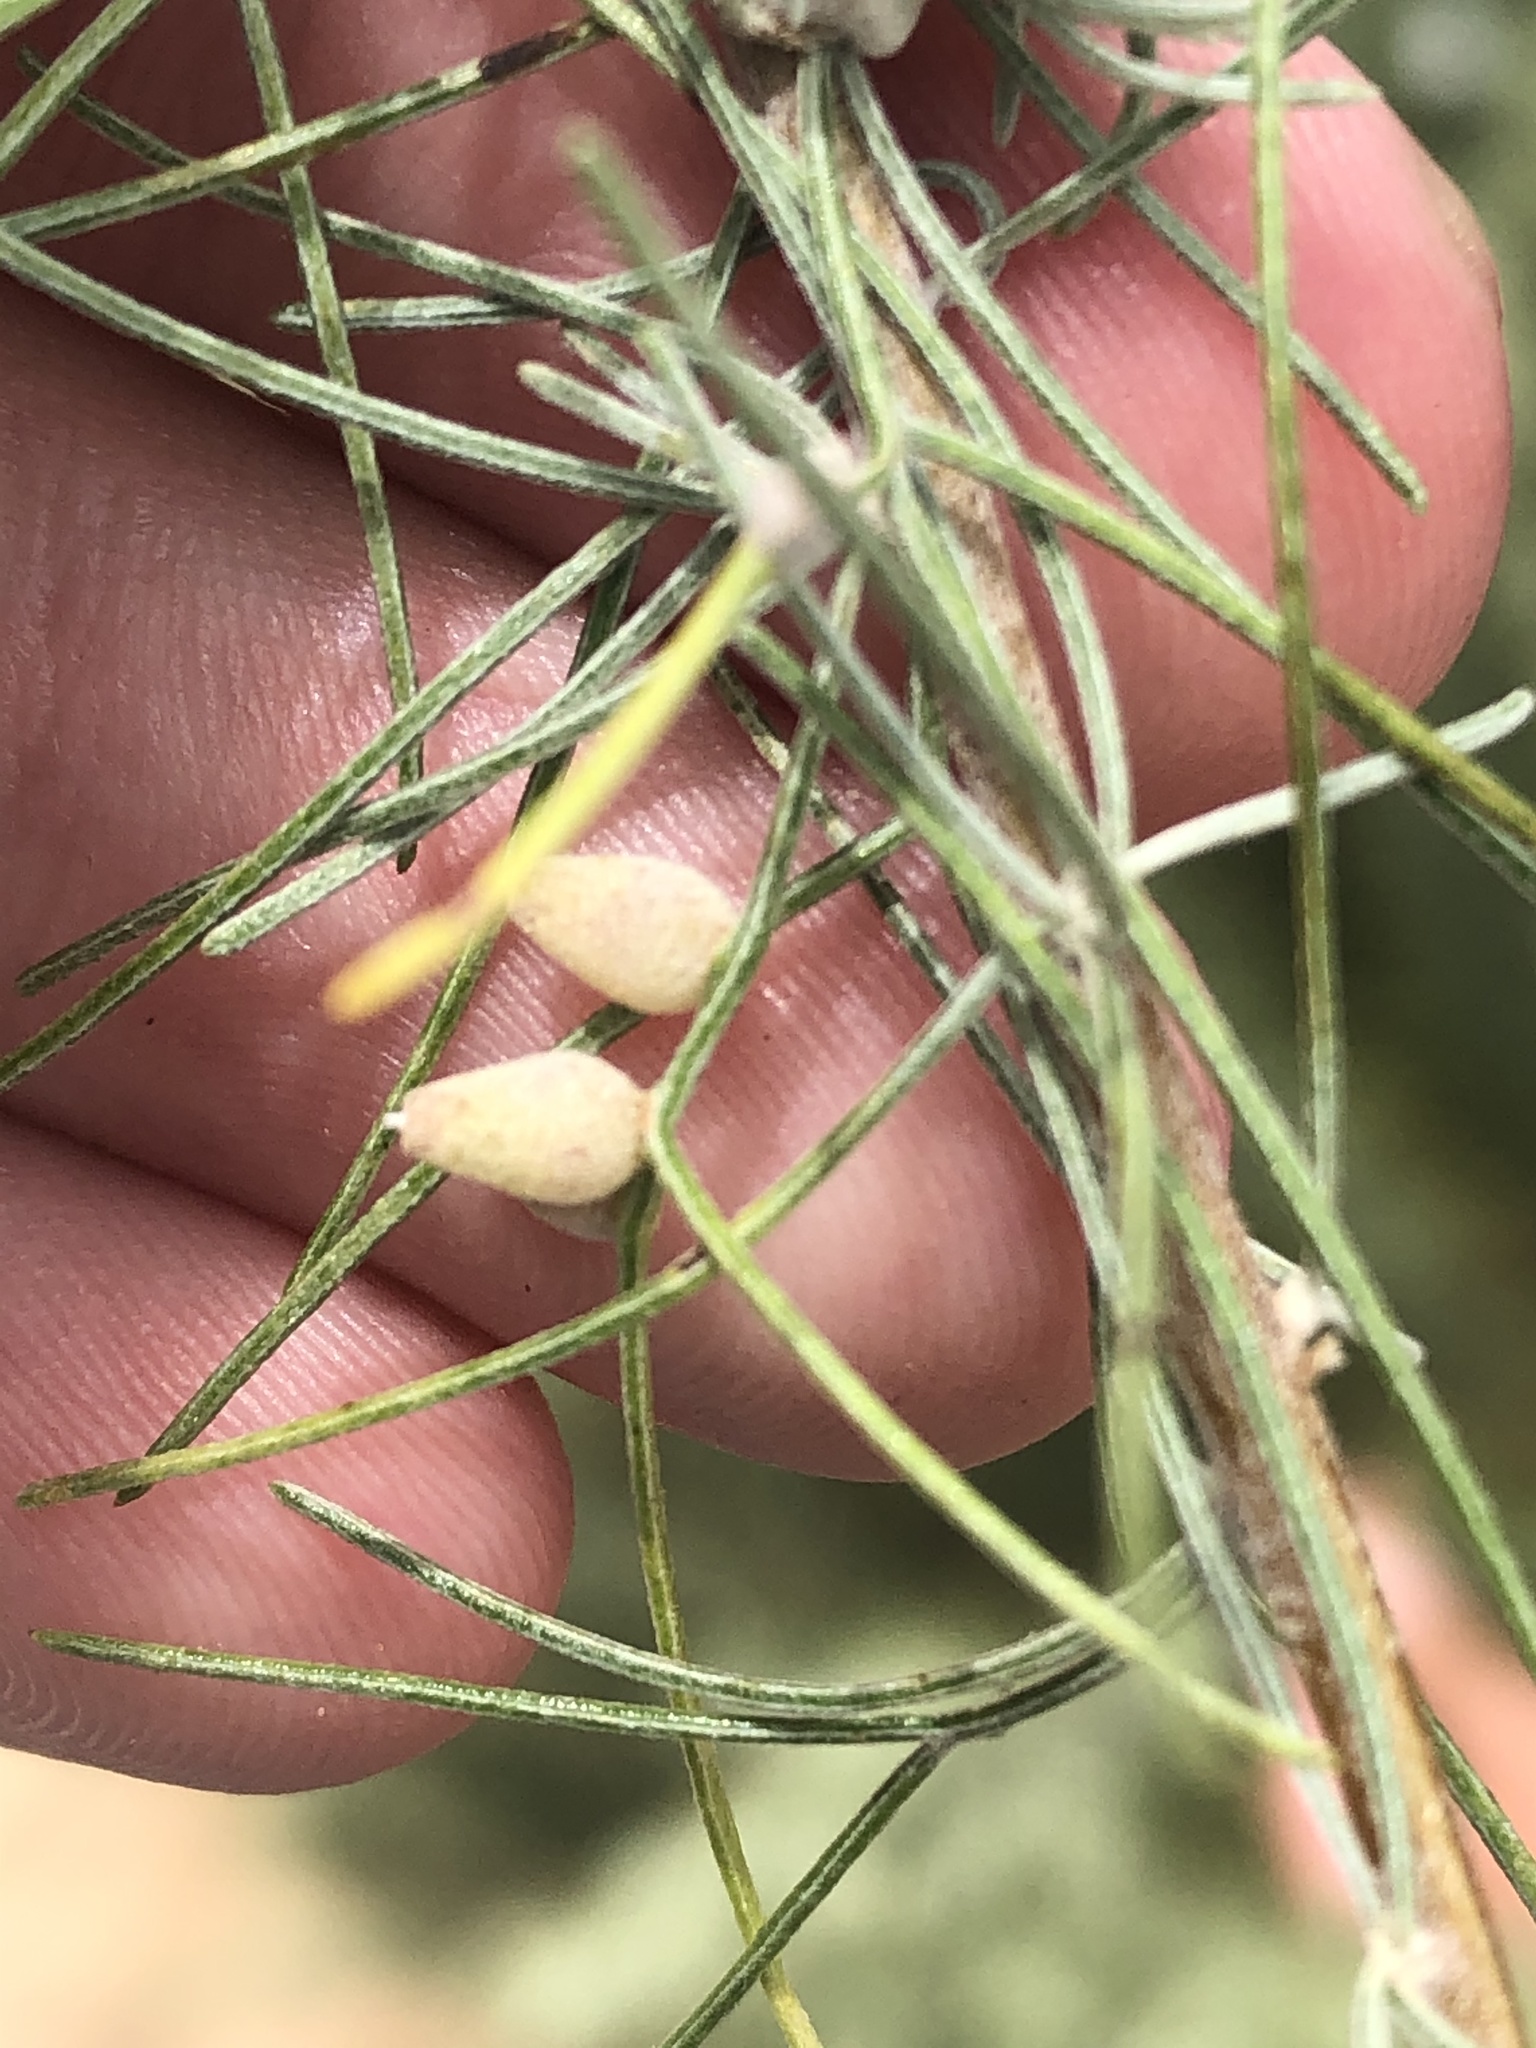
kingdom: Animalia
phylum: Arthropoda
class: Insecta
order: Diptera
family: Cecidomyiidae
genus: Rhopalomyia
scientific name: Rhopalomyia ampullaria
